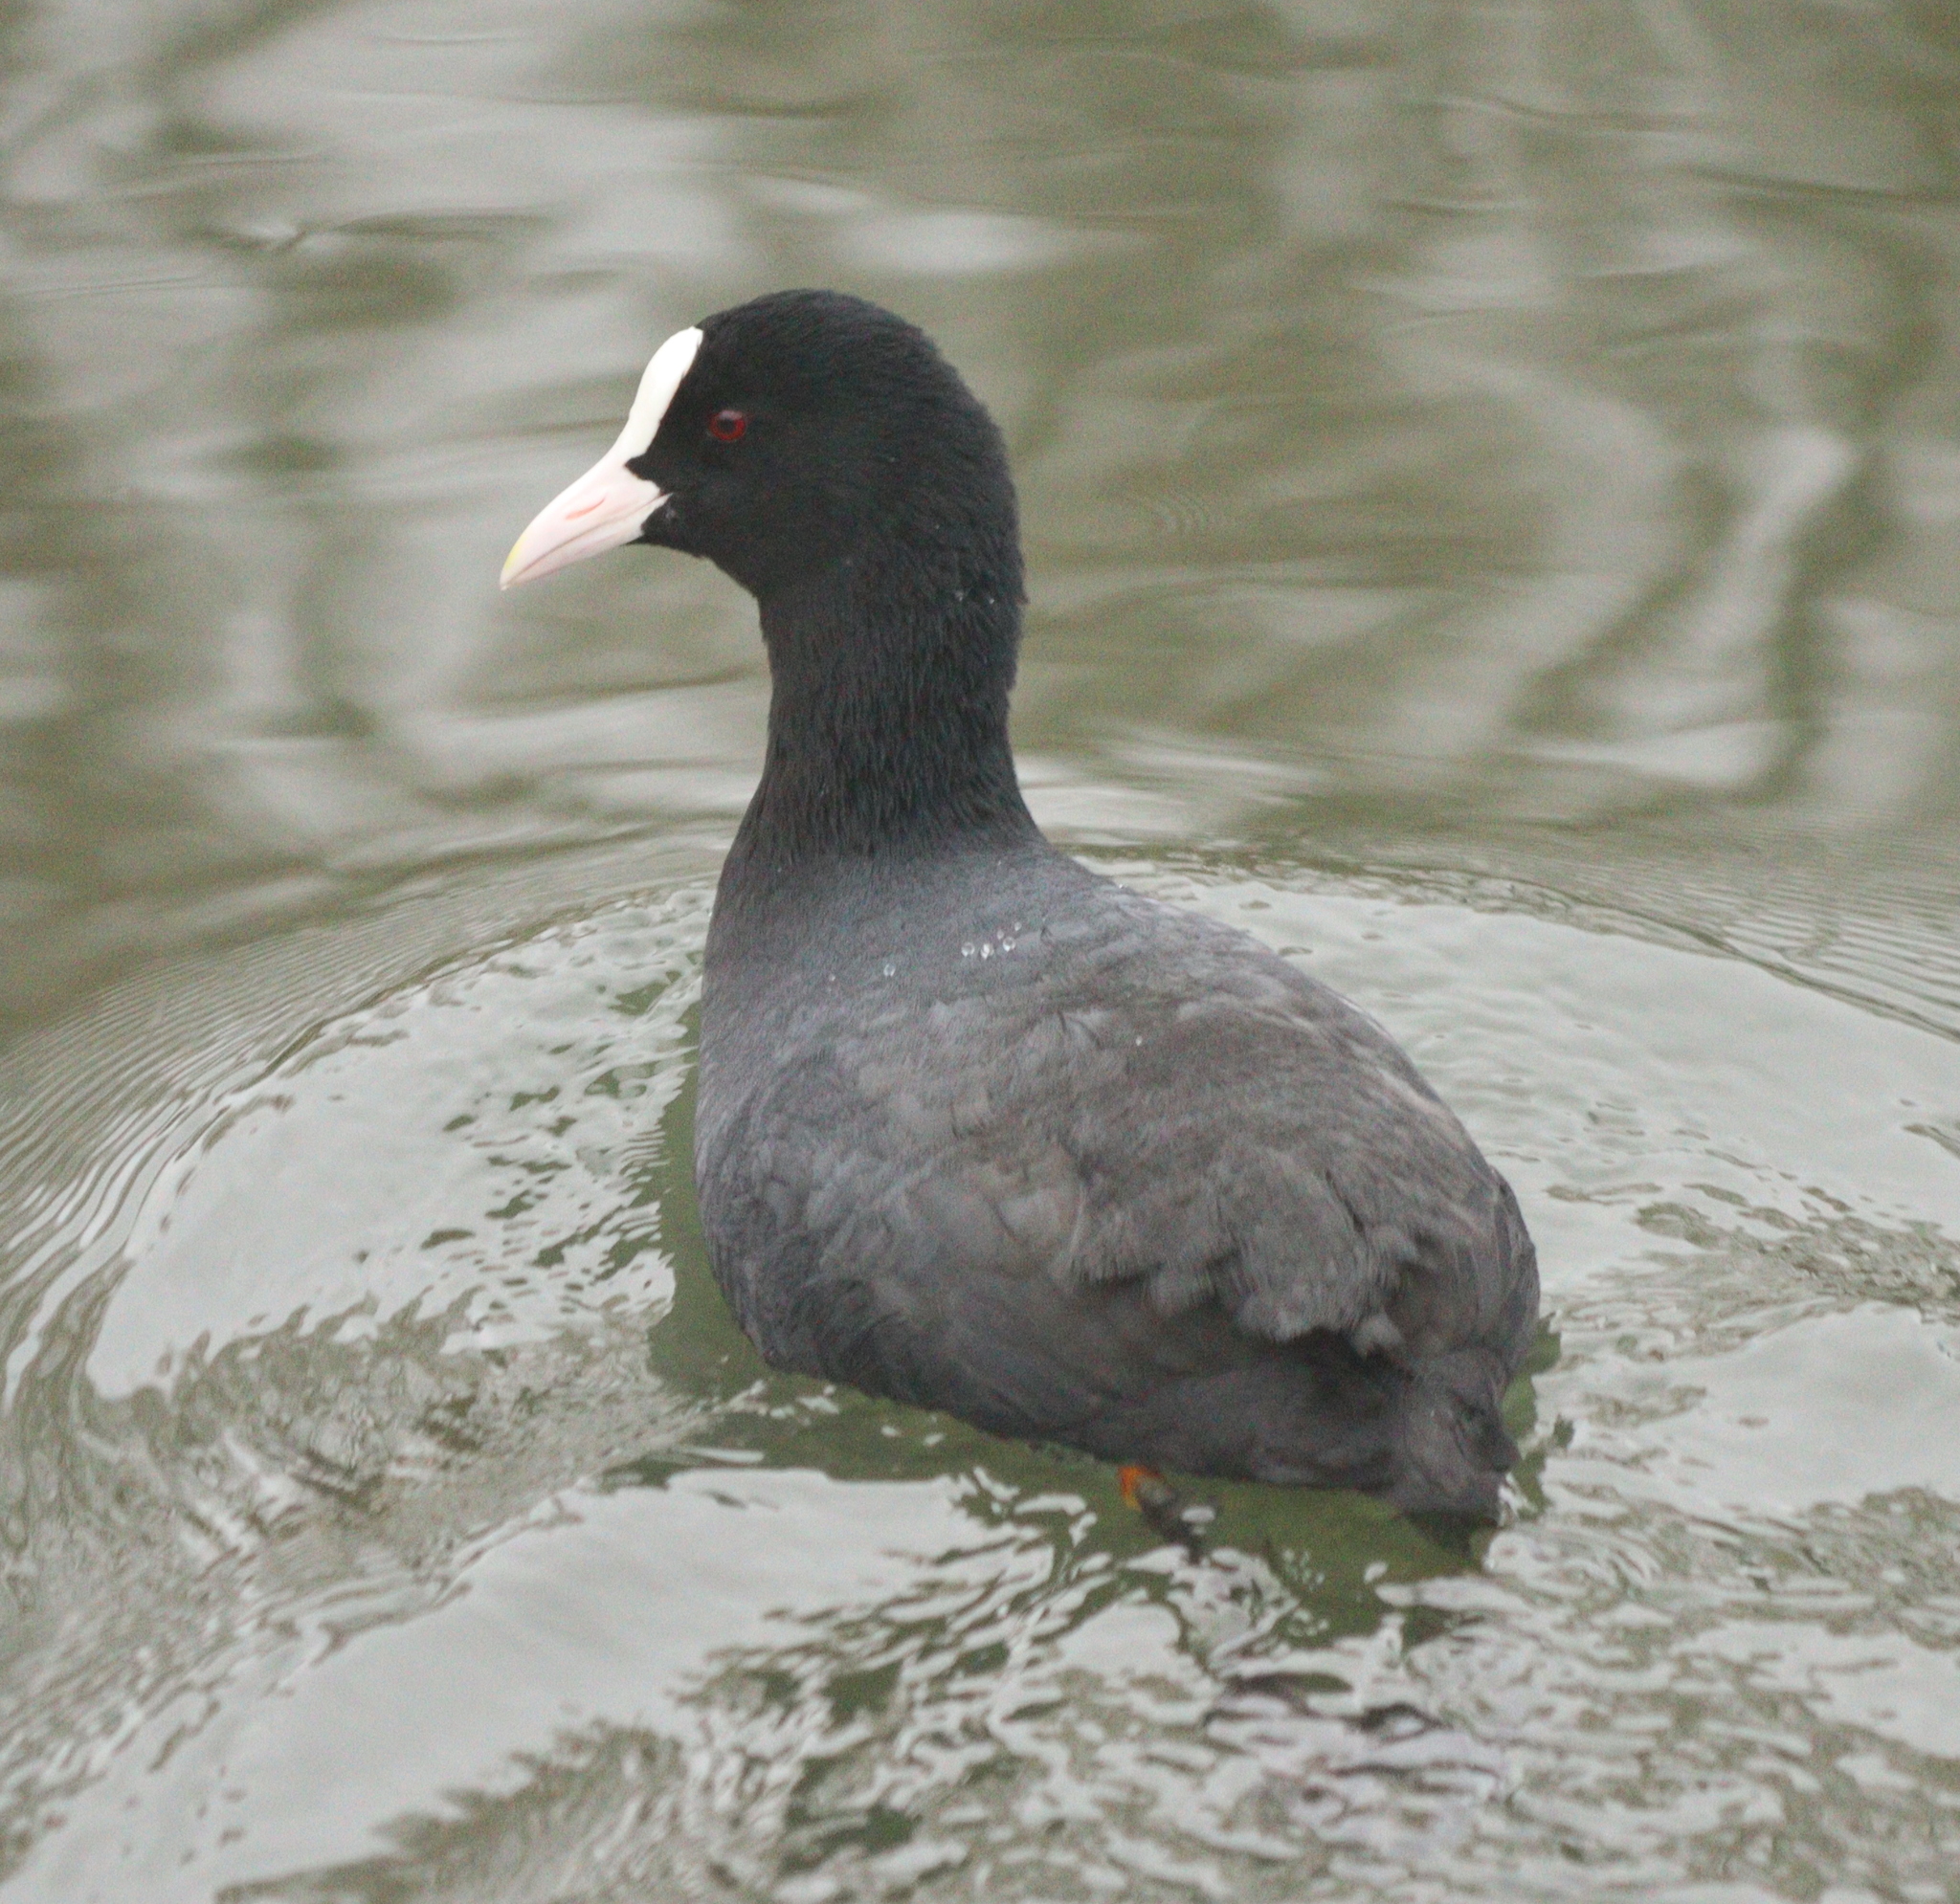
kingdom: Animalia
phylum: Chordata
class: Aves
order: Gruiformes
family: Rallidae
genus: Fulica
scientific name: Fulica atra
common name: Eurasian coot
